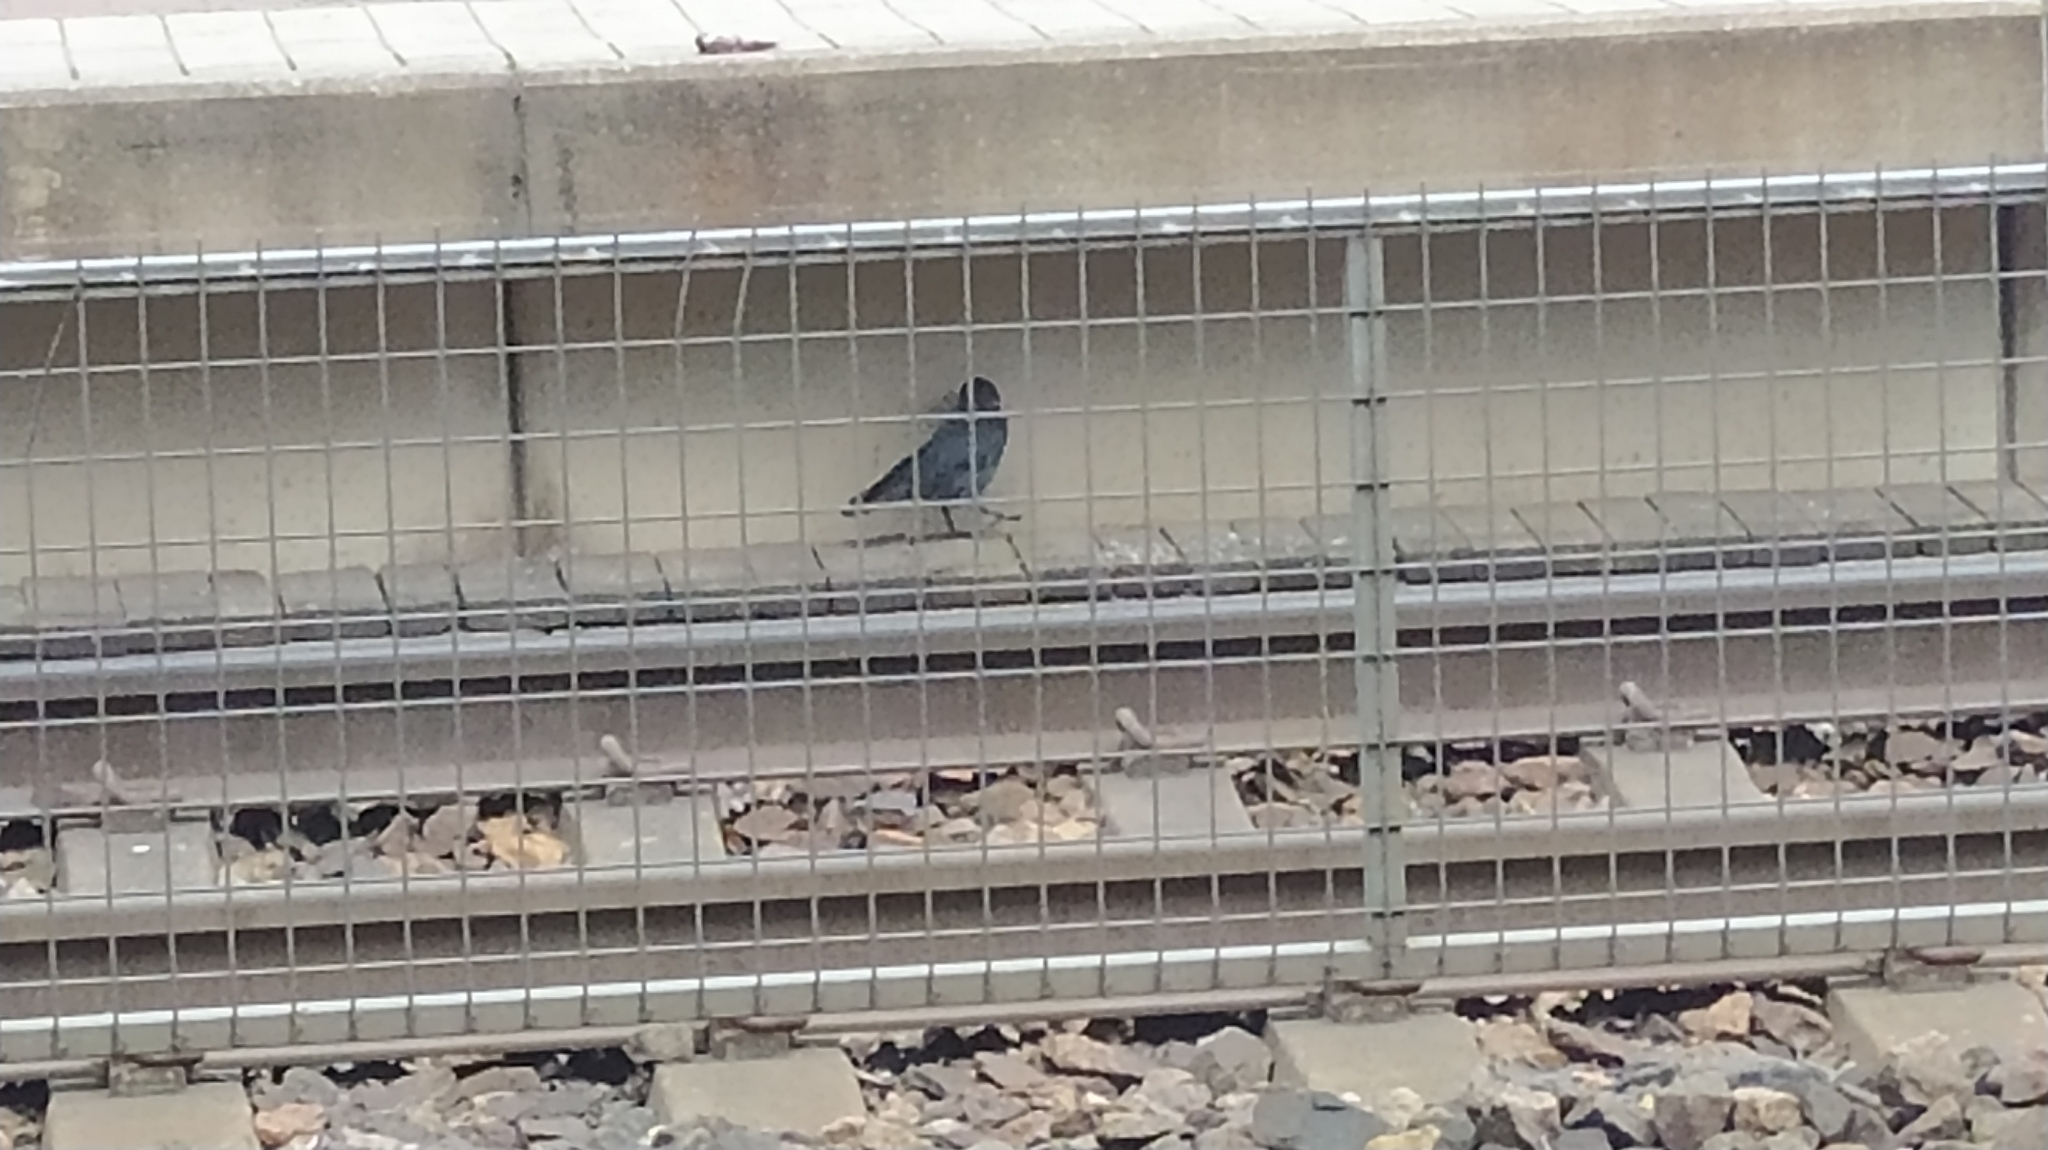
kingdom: Animalia
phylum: Chordata
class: Aves
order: Passeriformes
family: Corvidae
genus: Coloeus
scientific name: Coloeus monedula
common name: Western jackdaw
